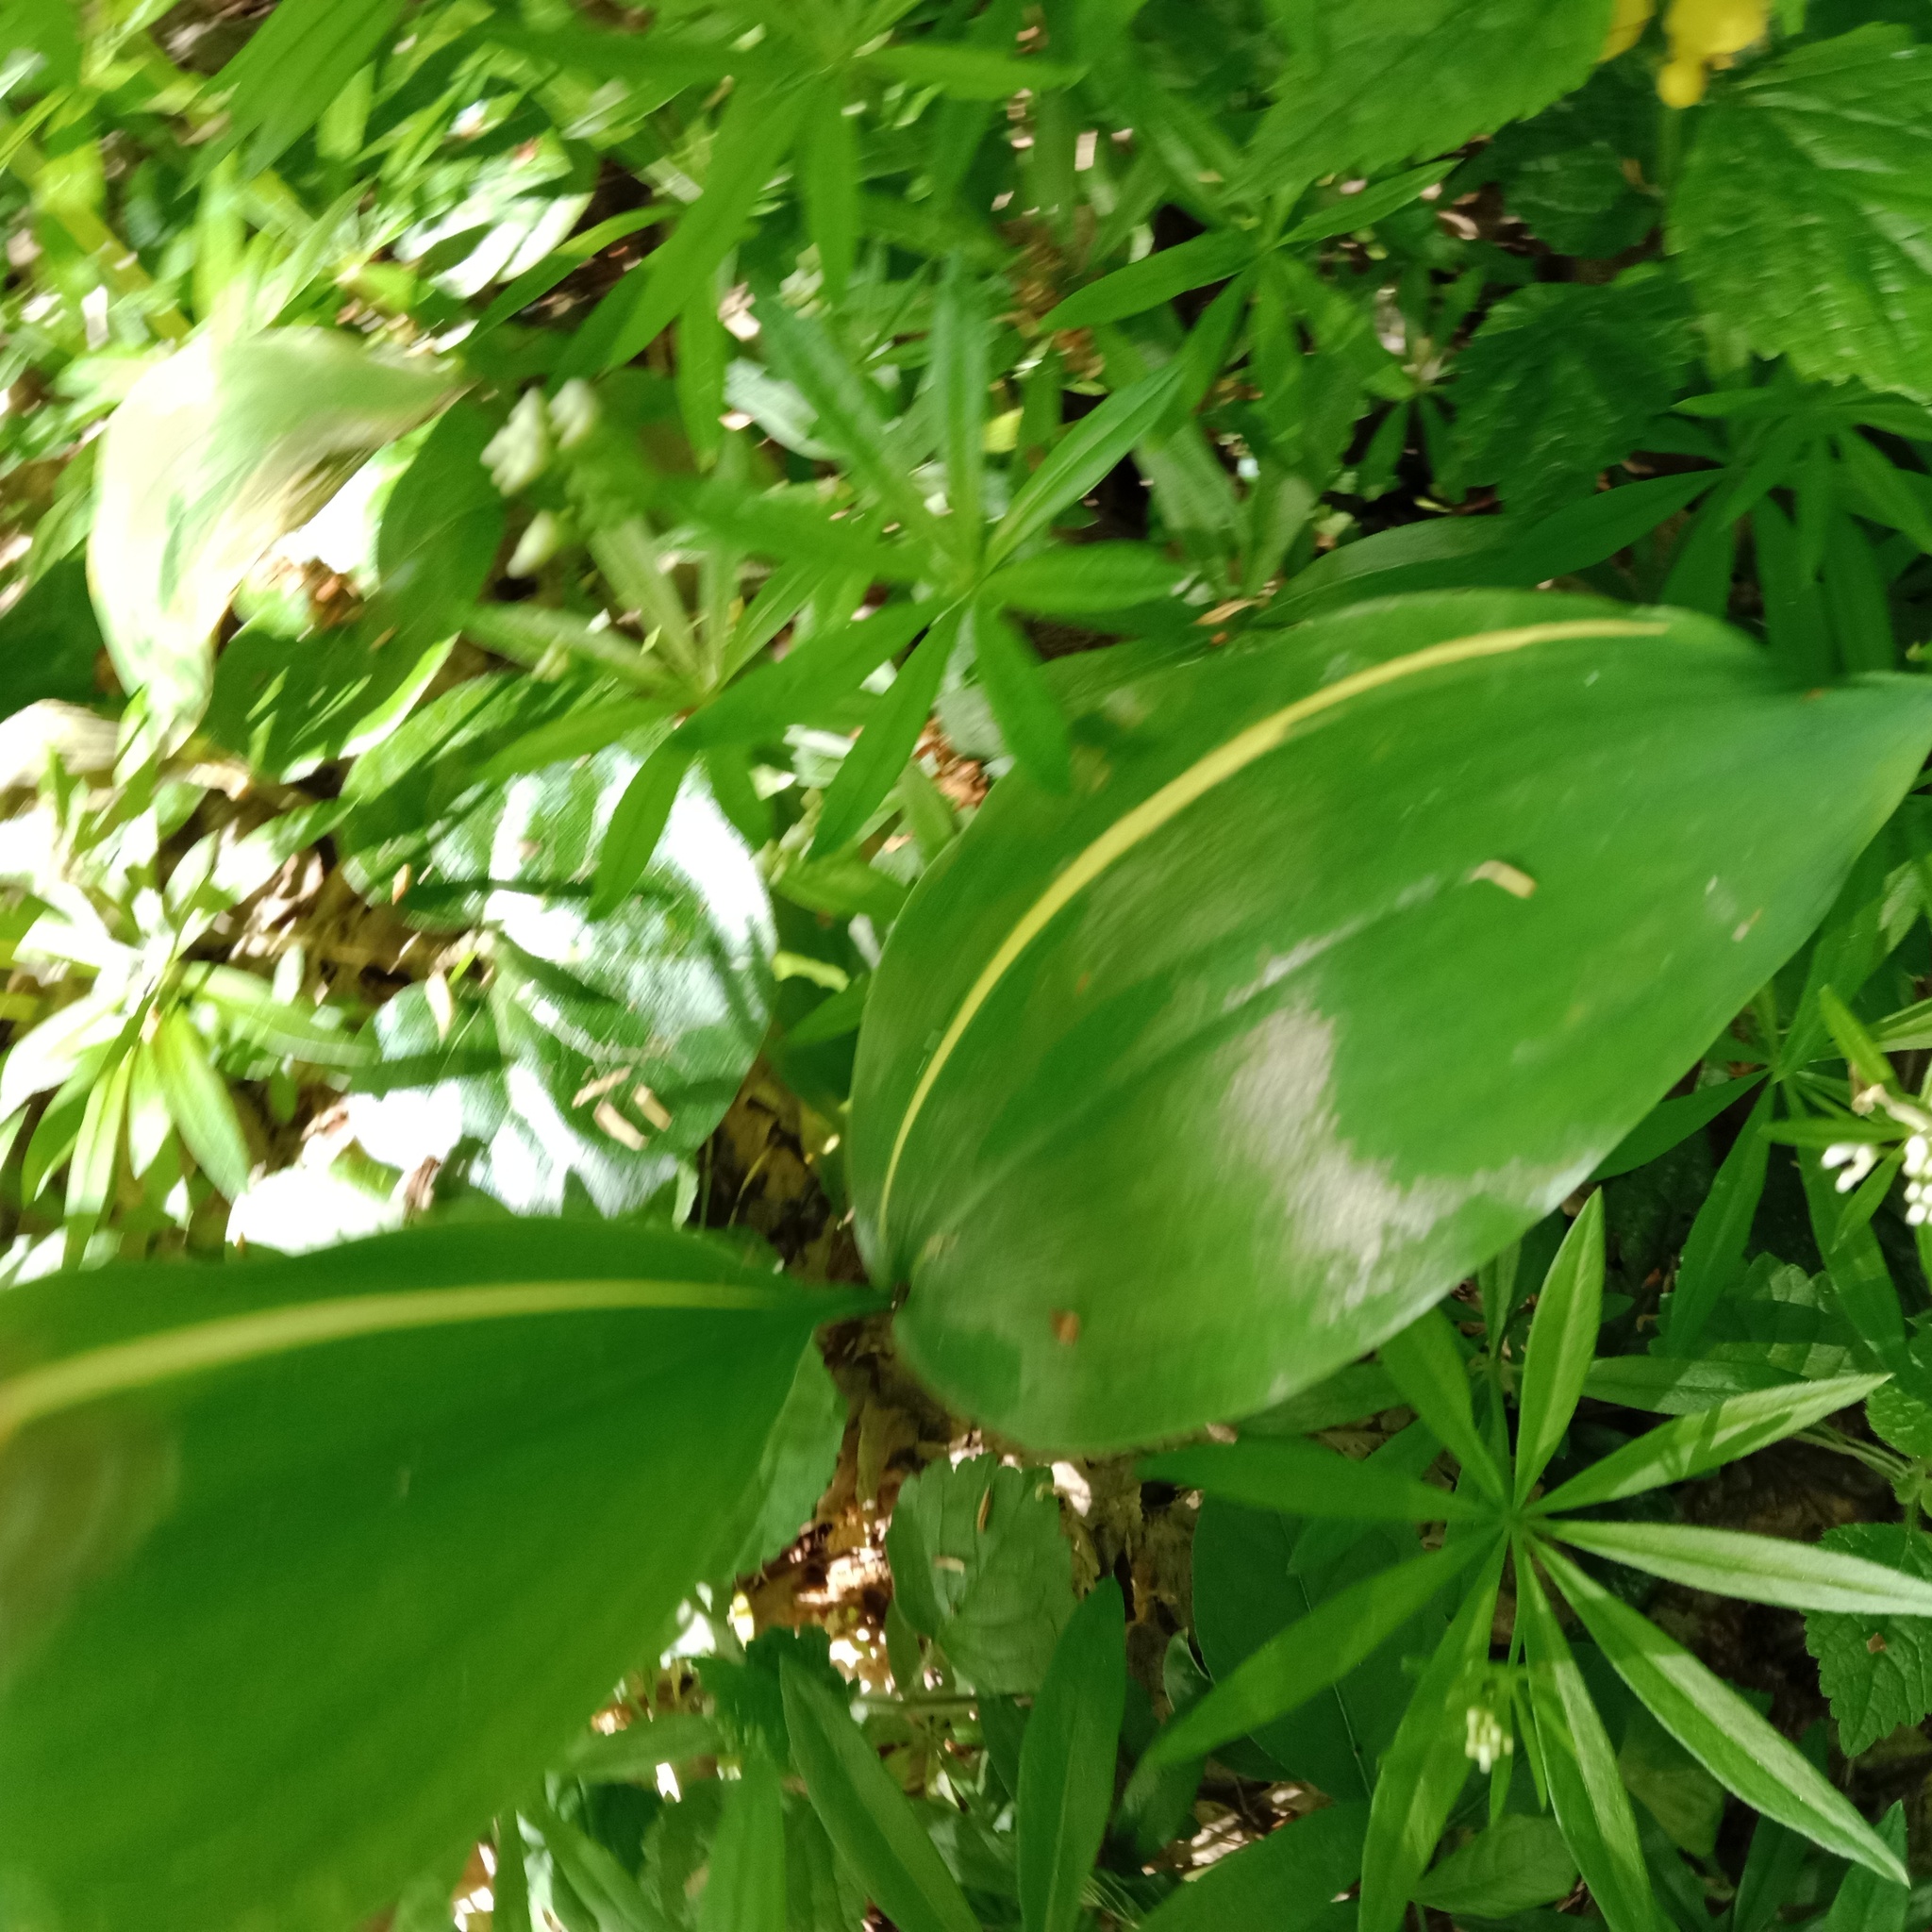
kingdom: Plantae
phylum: Tracheophyta
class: Liliopsida
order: Asparagales
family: Asparagaceae
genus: Convallaria
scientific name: Convallaria majalis
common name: Lily-of-the-valley
